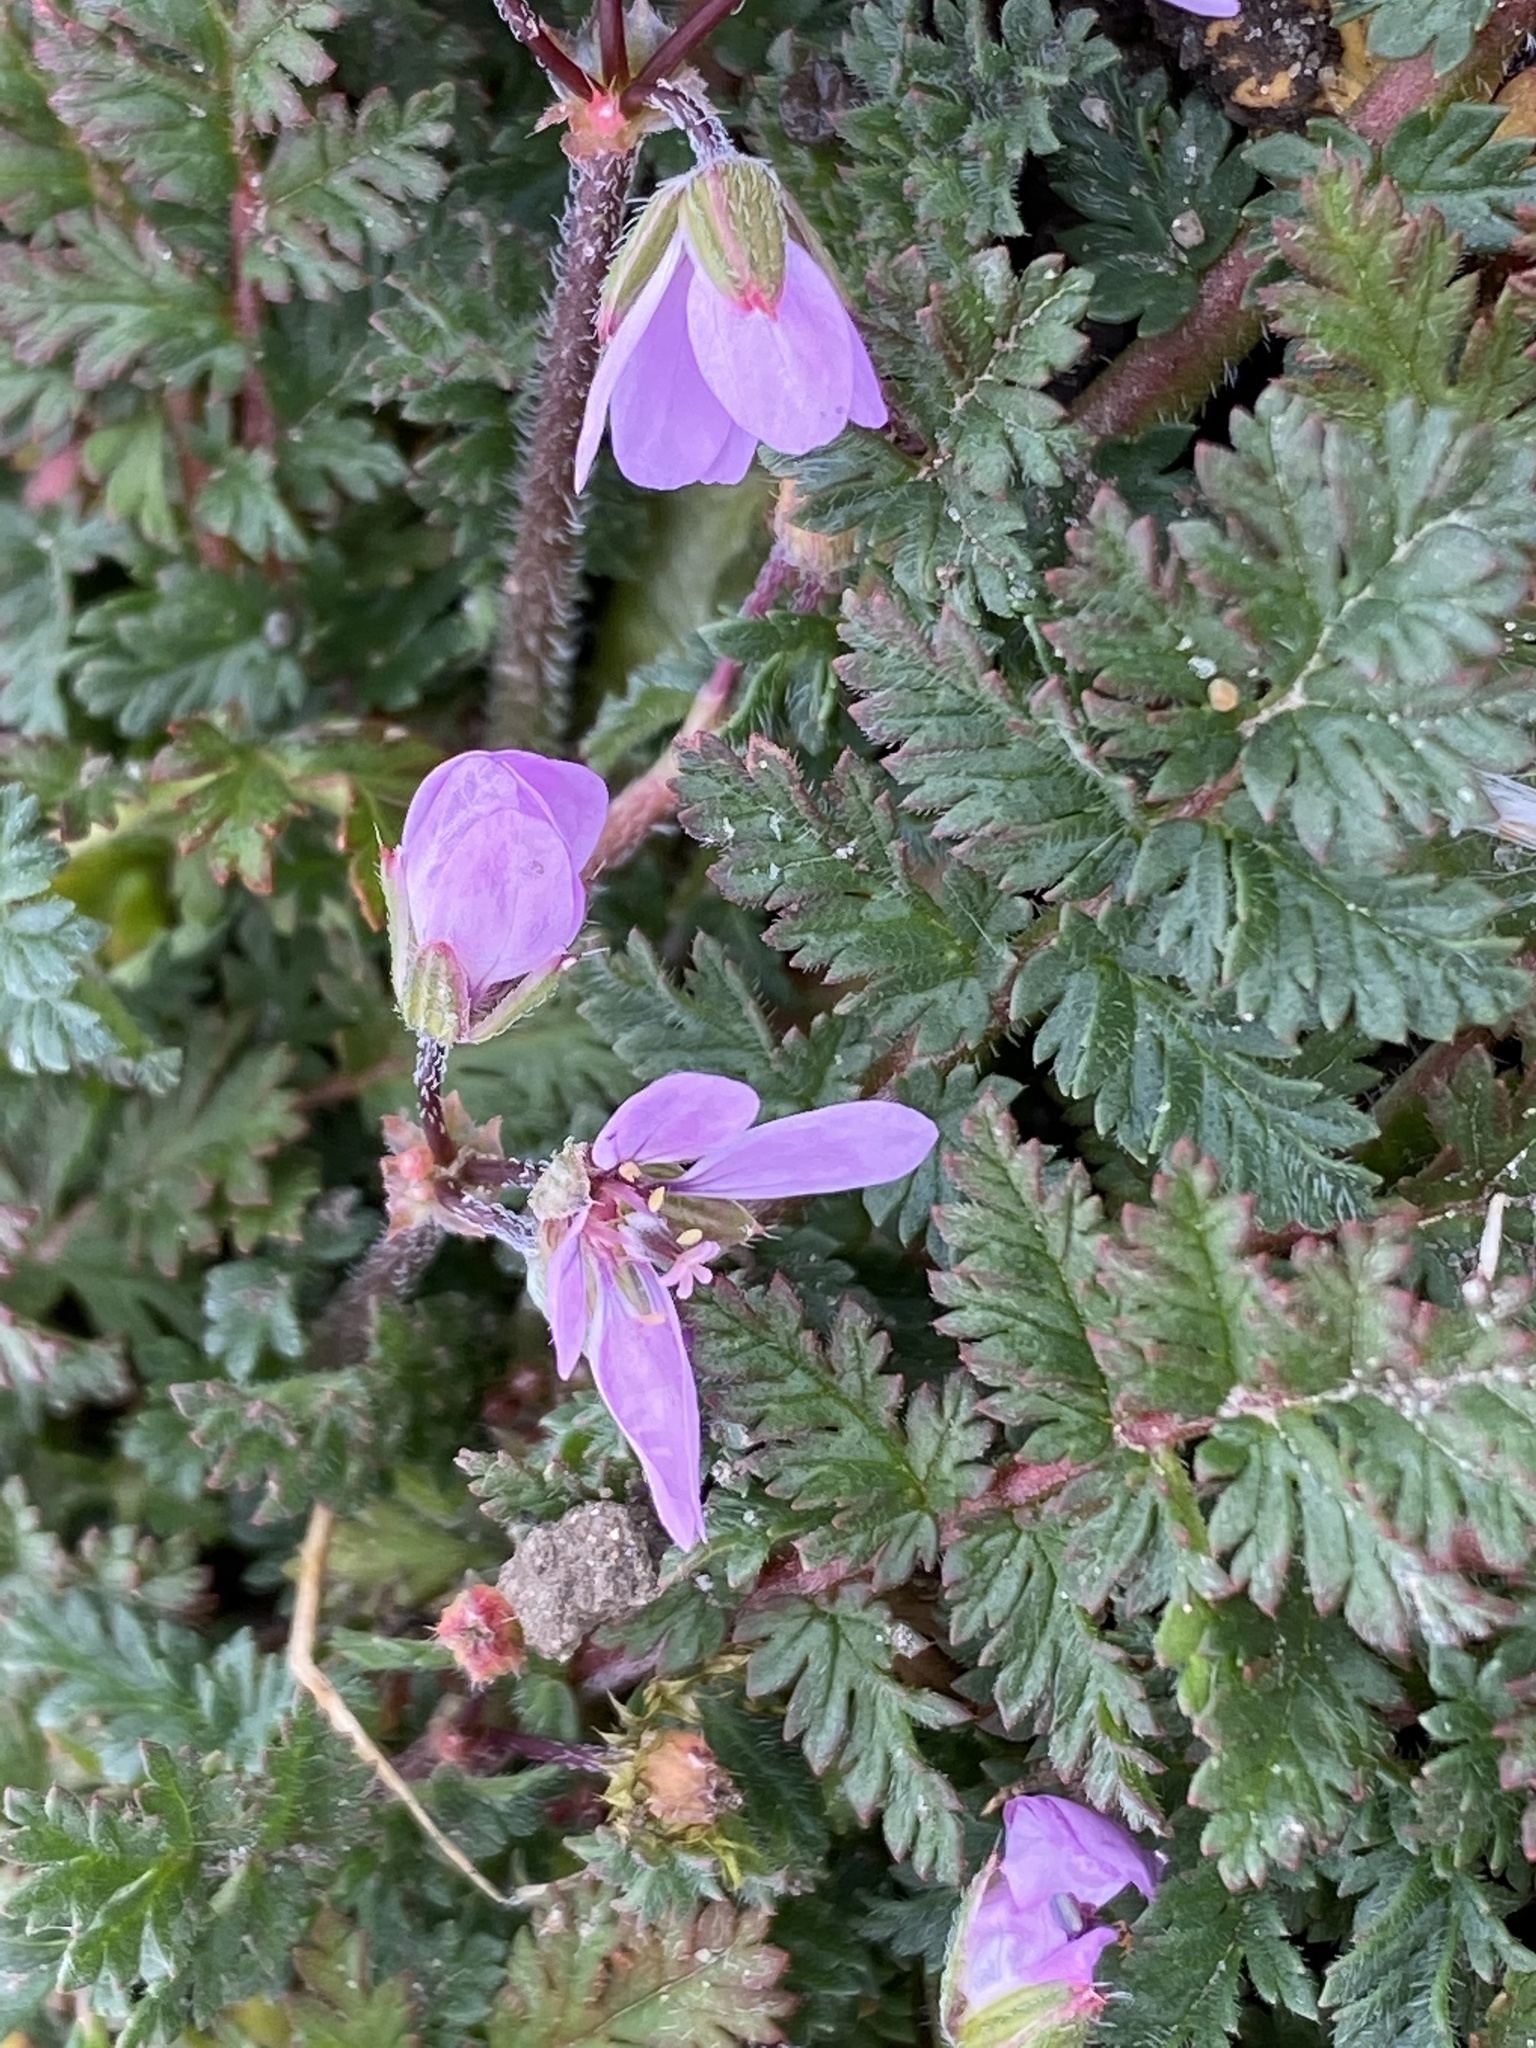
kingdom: Plantae
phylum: Tracheophyta
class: Magnoliopsida
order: Geraniales
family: Geraniaceae
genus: Erodium
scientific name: Erodium cicutarium
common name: Common stork's-bill
